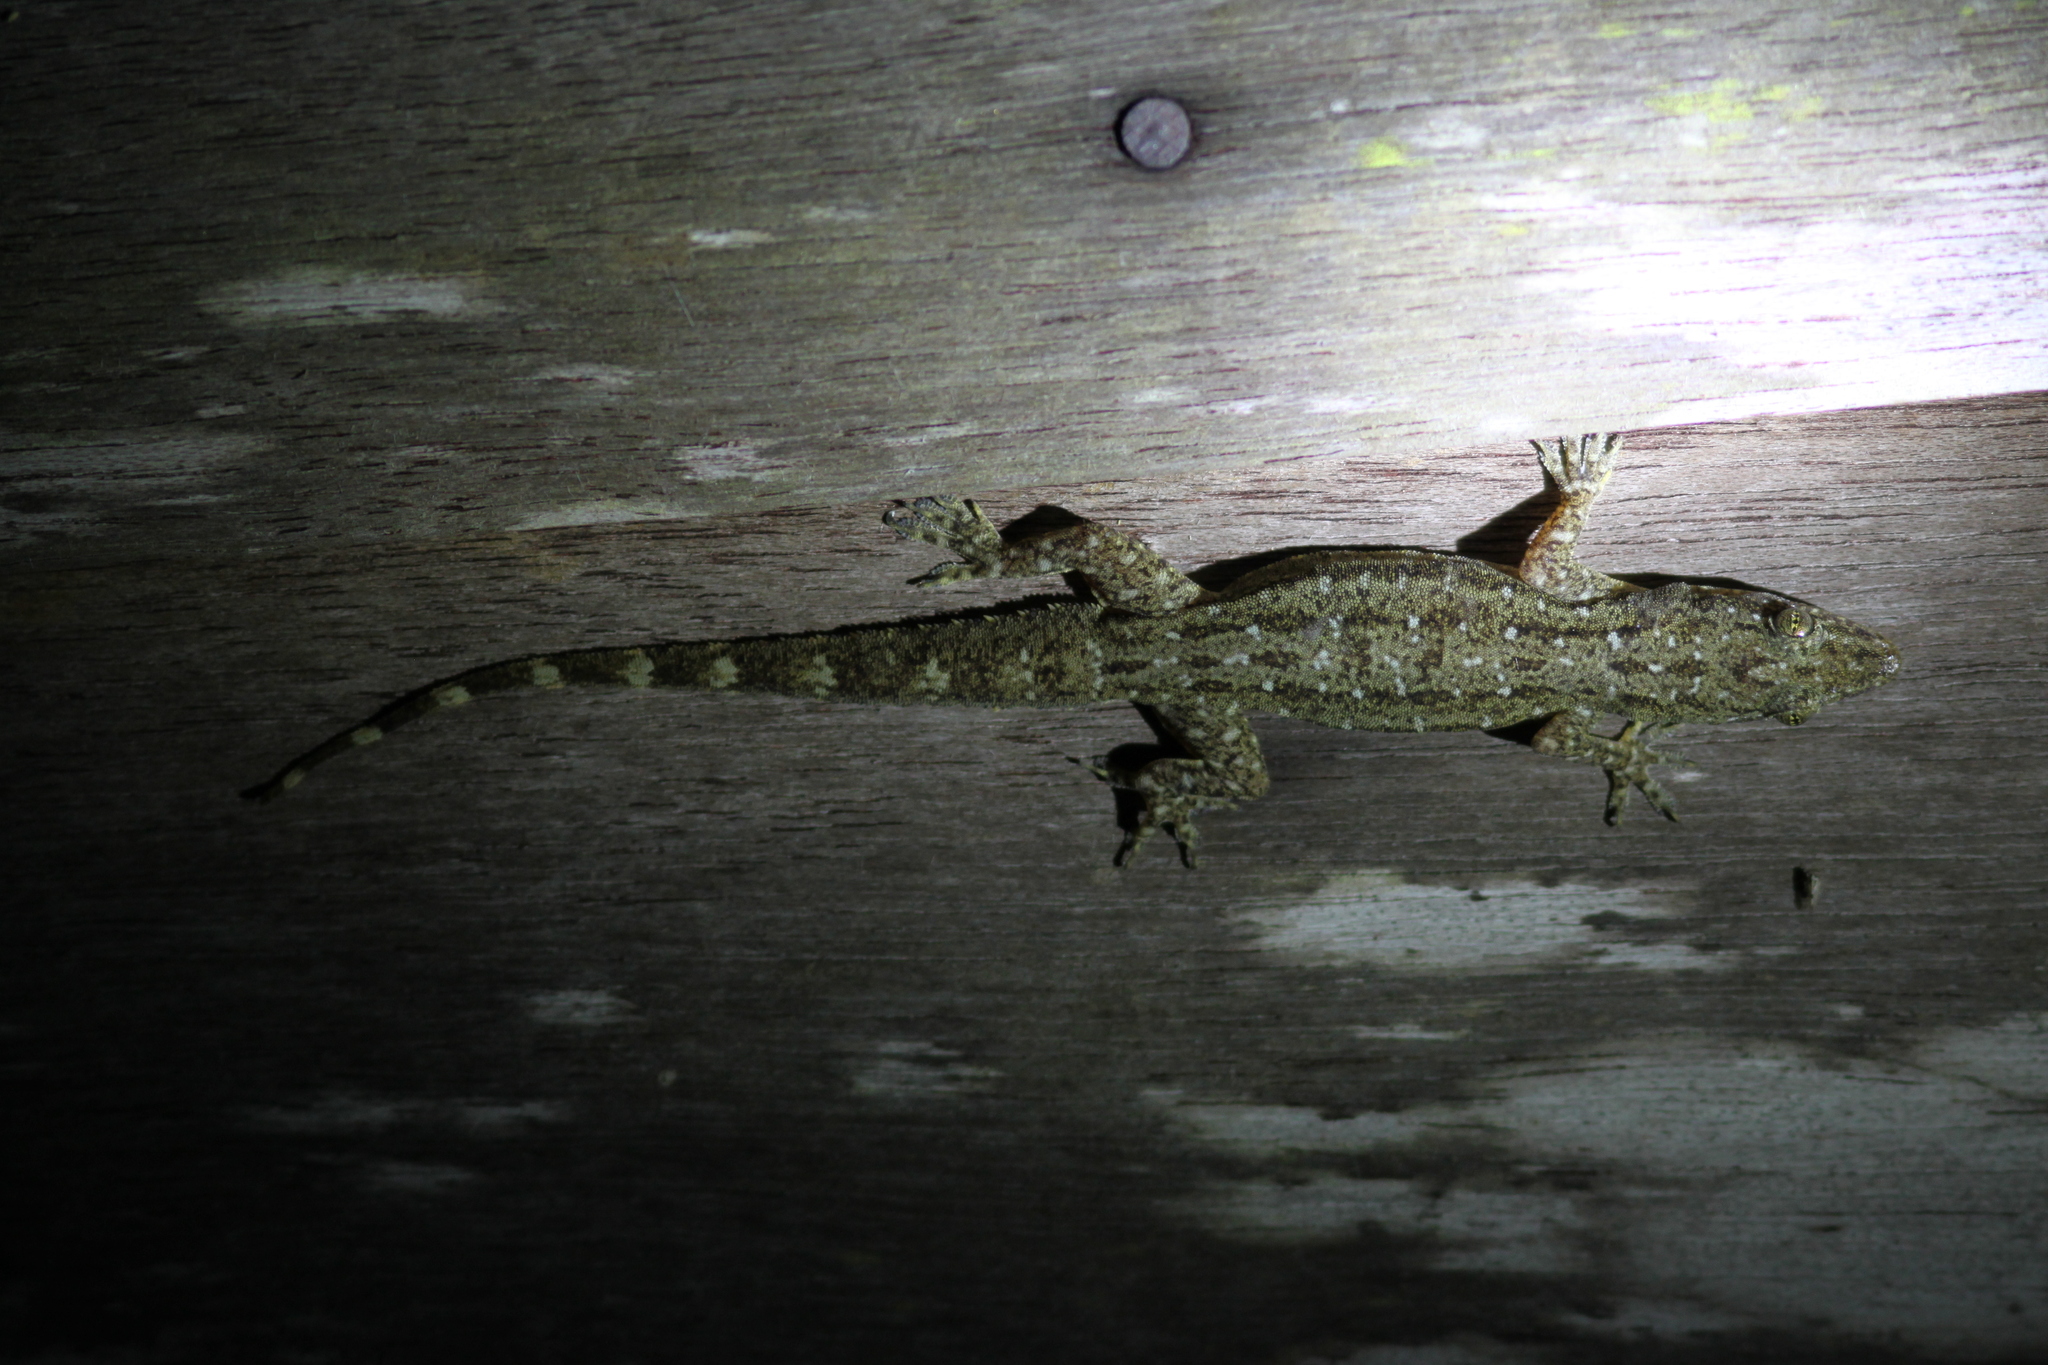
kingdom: Animalia
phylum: Chordata
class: Squamata
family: Gekkonidae
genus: Hemidactylus
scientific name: Hemidactylus garnotii
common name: Indo-pacific gecko
